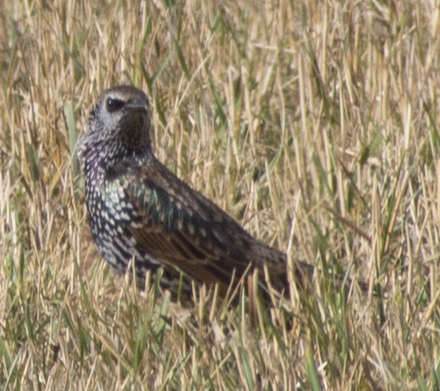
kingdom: Animalia
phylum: Chordata
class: Aves
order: Passeriformes
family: Sturnidae
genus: Sturnus
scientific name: Sturnus vulgaris
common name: Common starling
